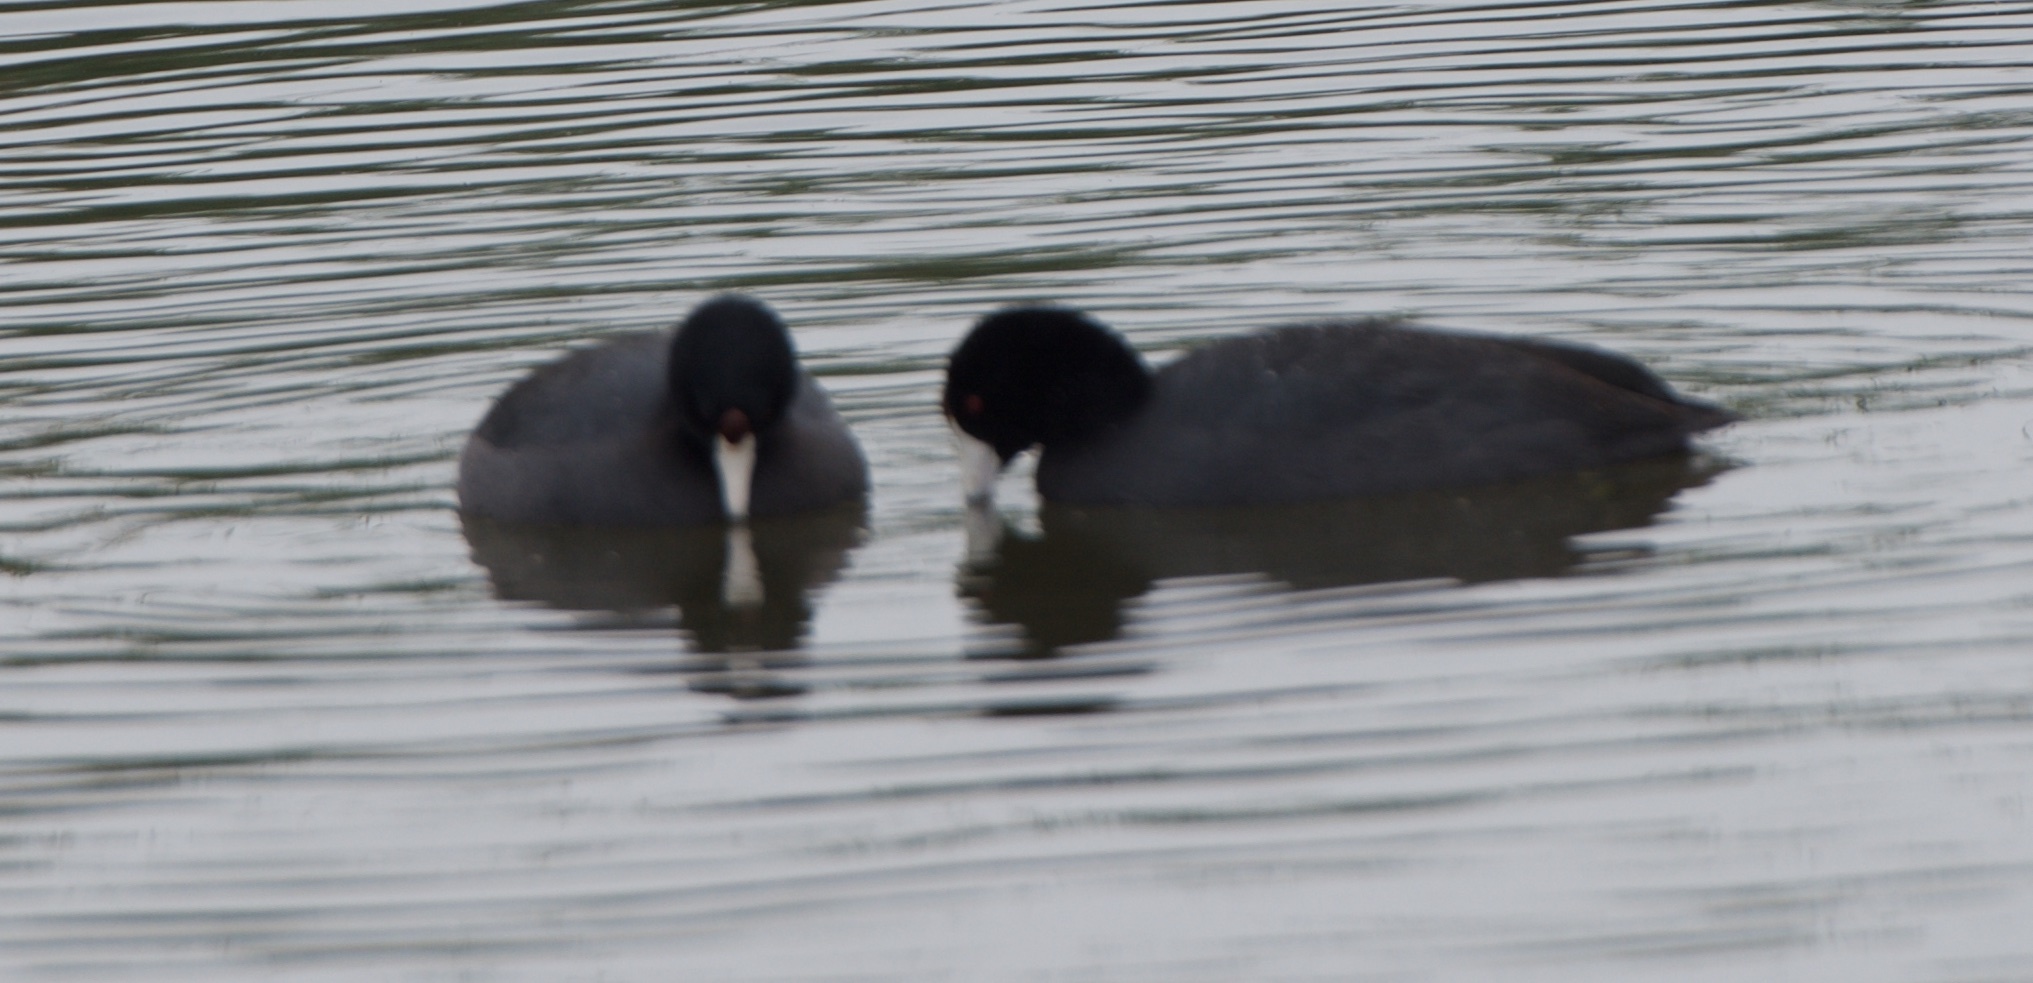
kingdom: Animalia
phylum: Chordata
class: Aves
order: Gruiformes
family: Rallidae
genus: Fulica
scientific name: Fulica americana
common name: American coot
